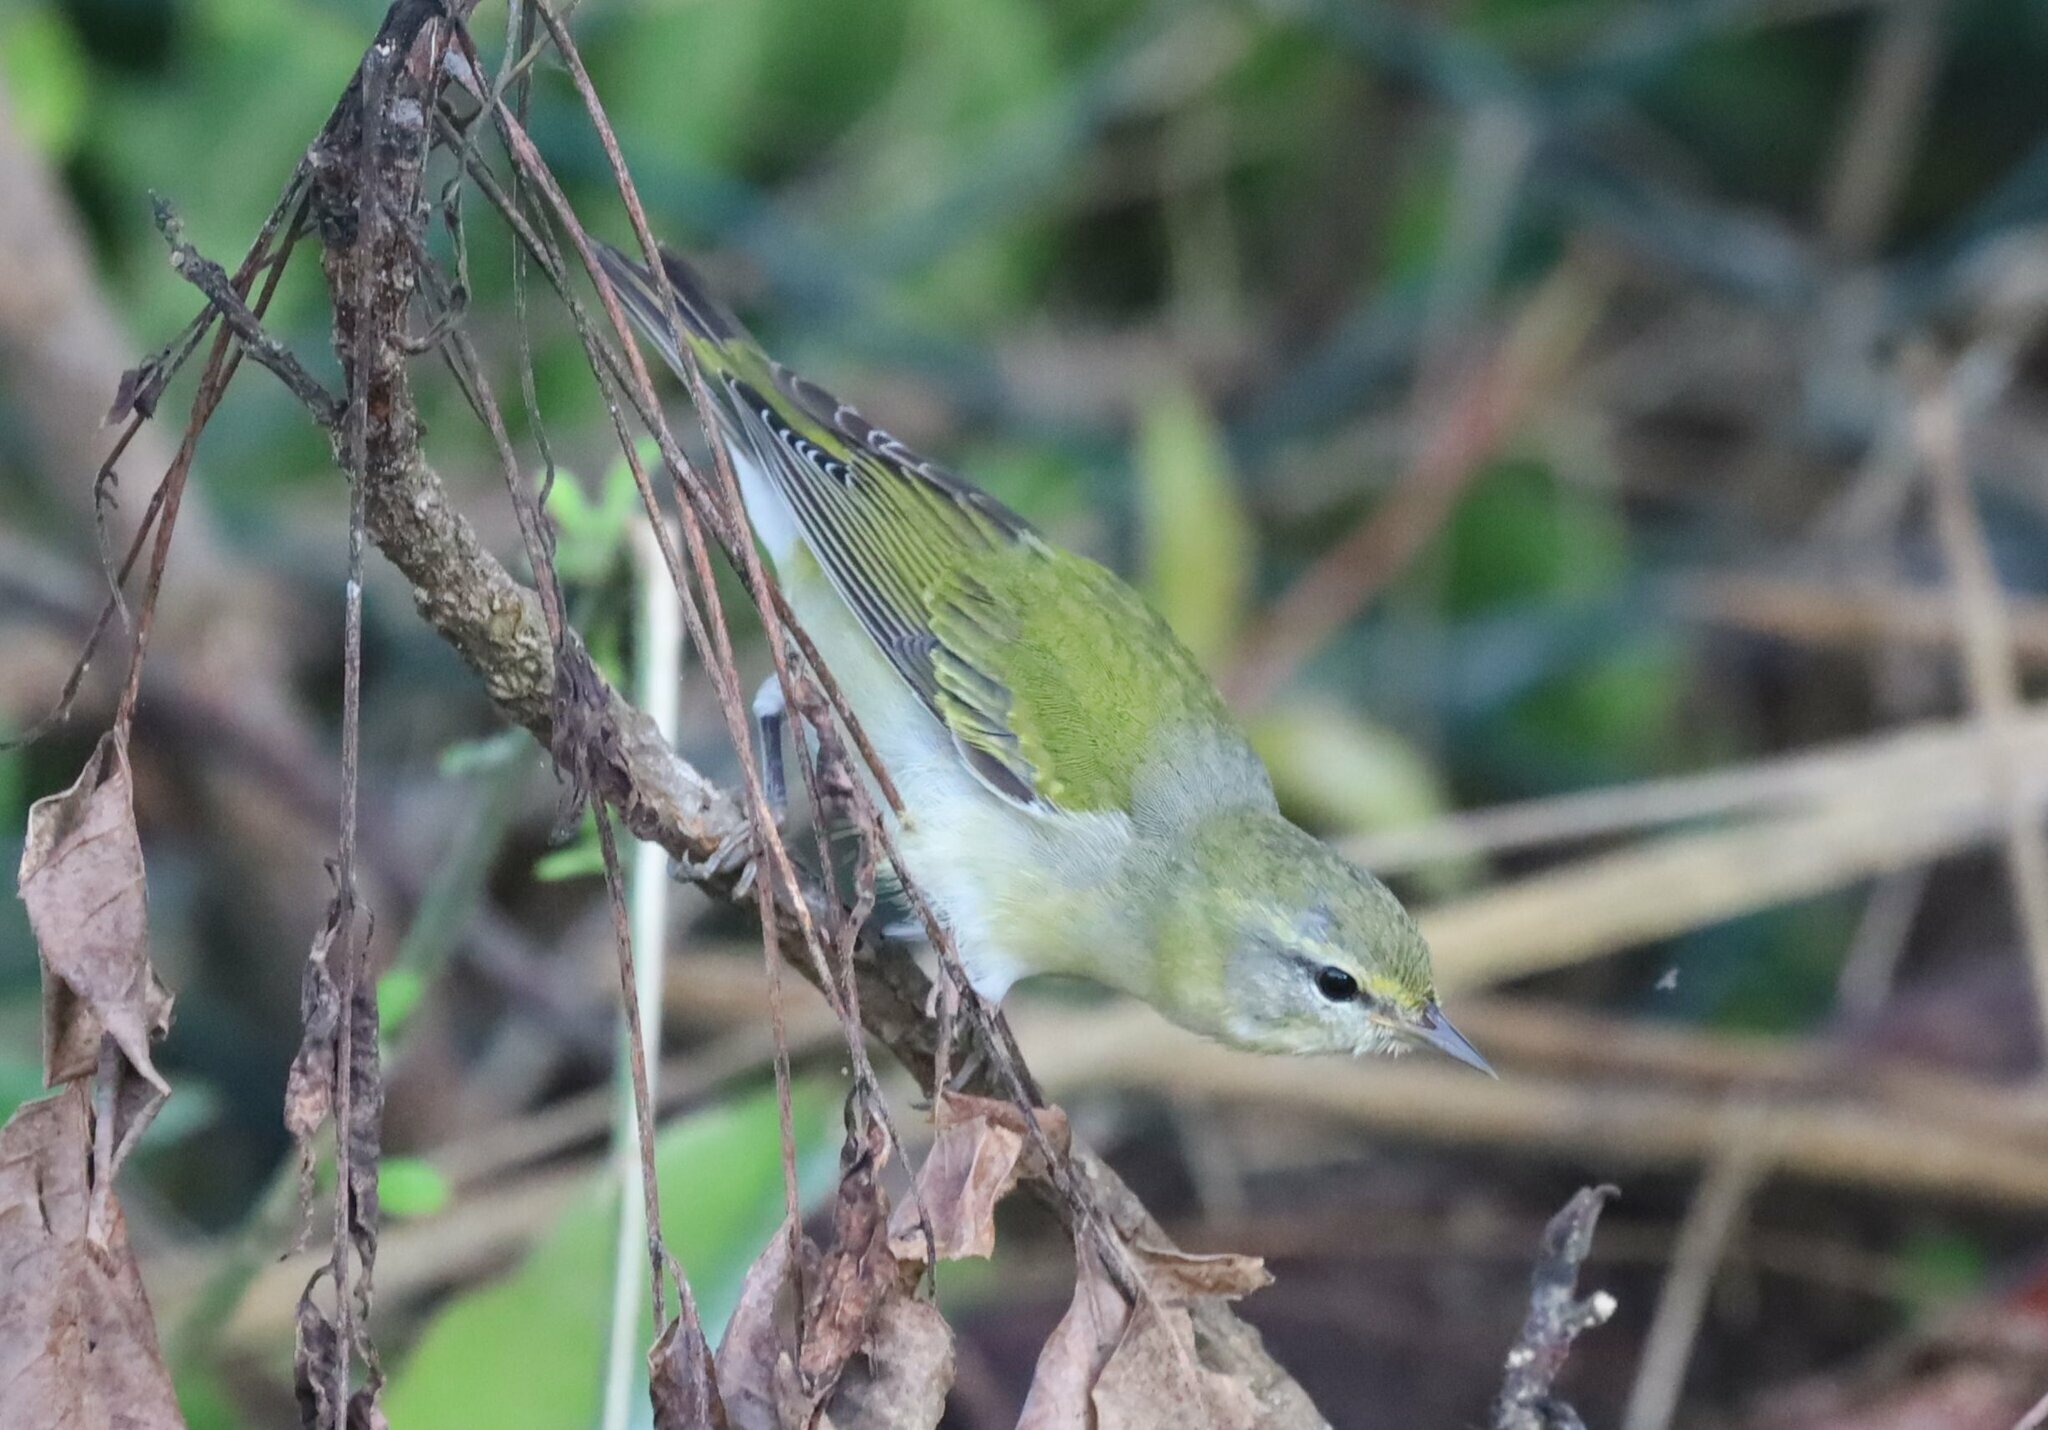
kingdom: Animalia
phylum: Chordata
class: Aves
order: Passeriformes
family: Parulidae
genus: Leiothlypis
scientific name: Leiothlypis peregrina
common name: Tennessee warbler
